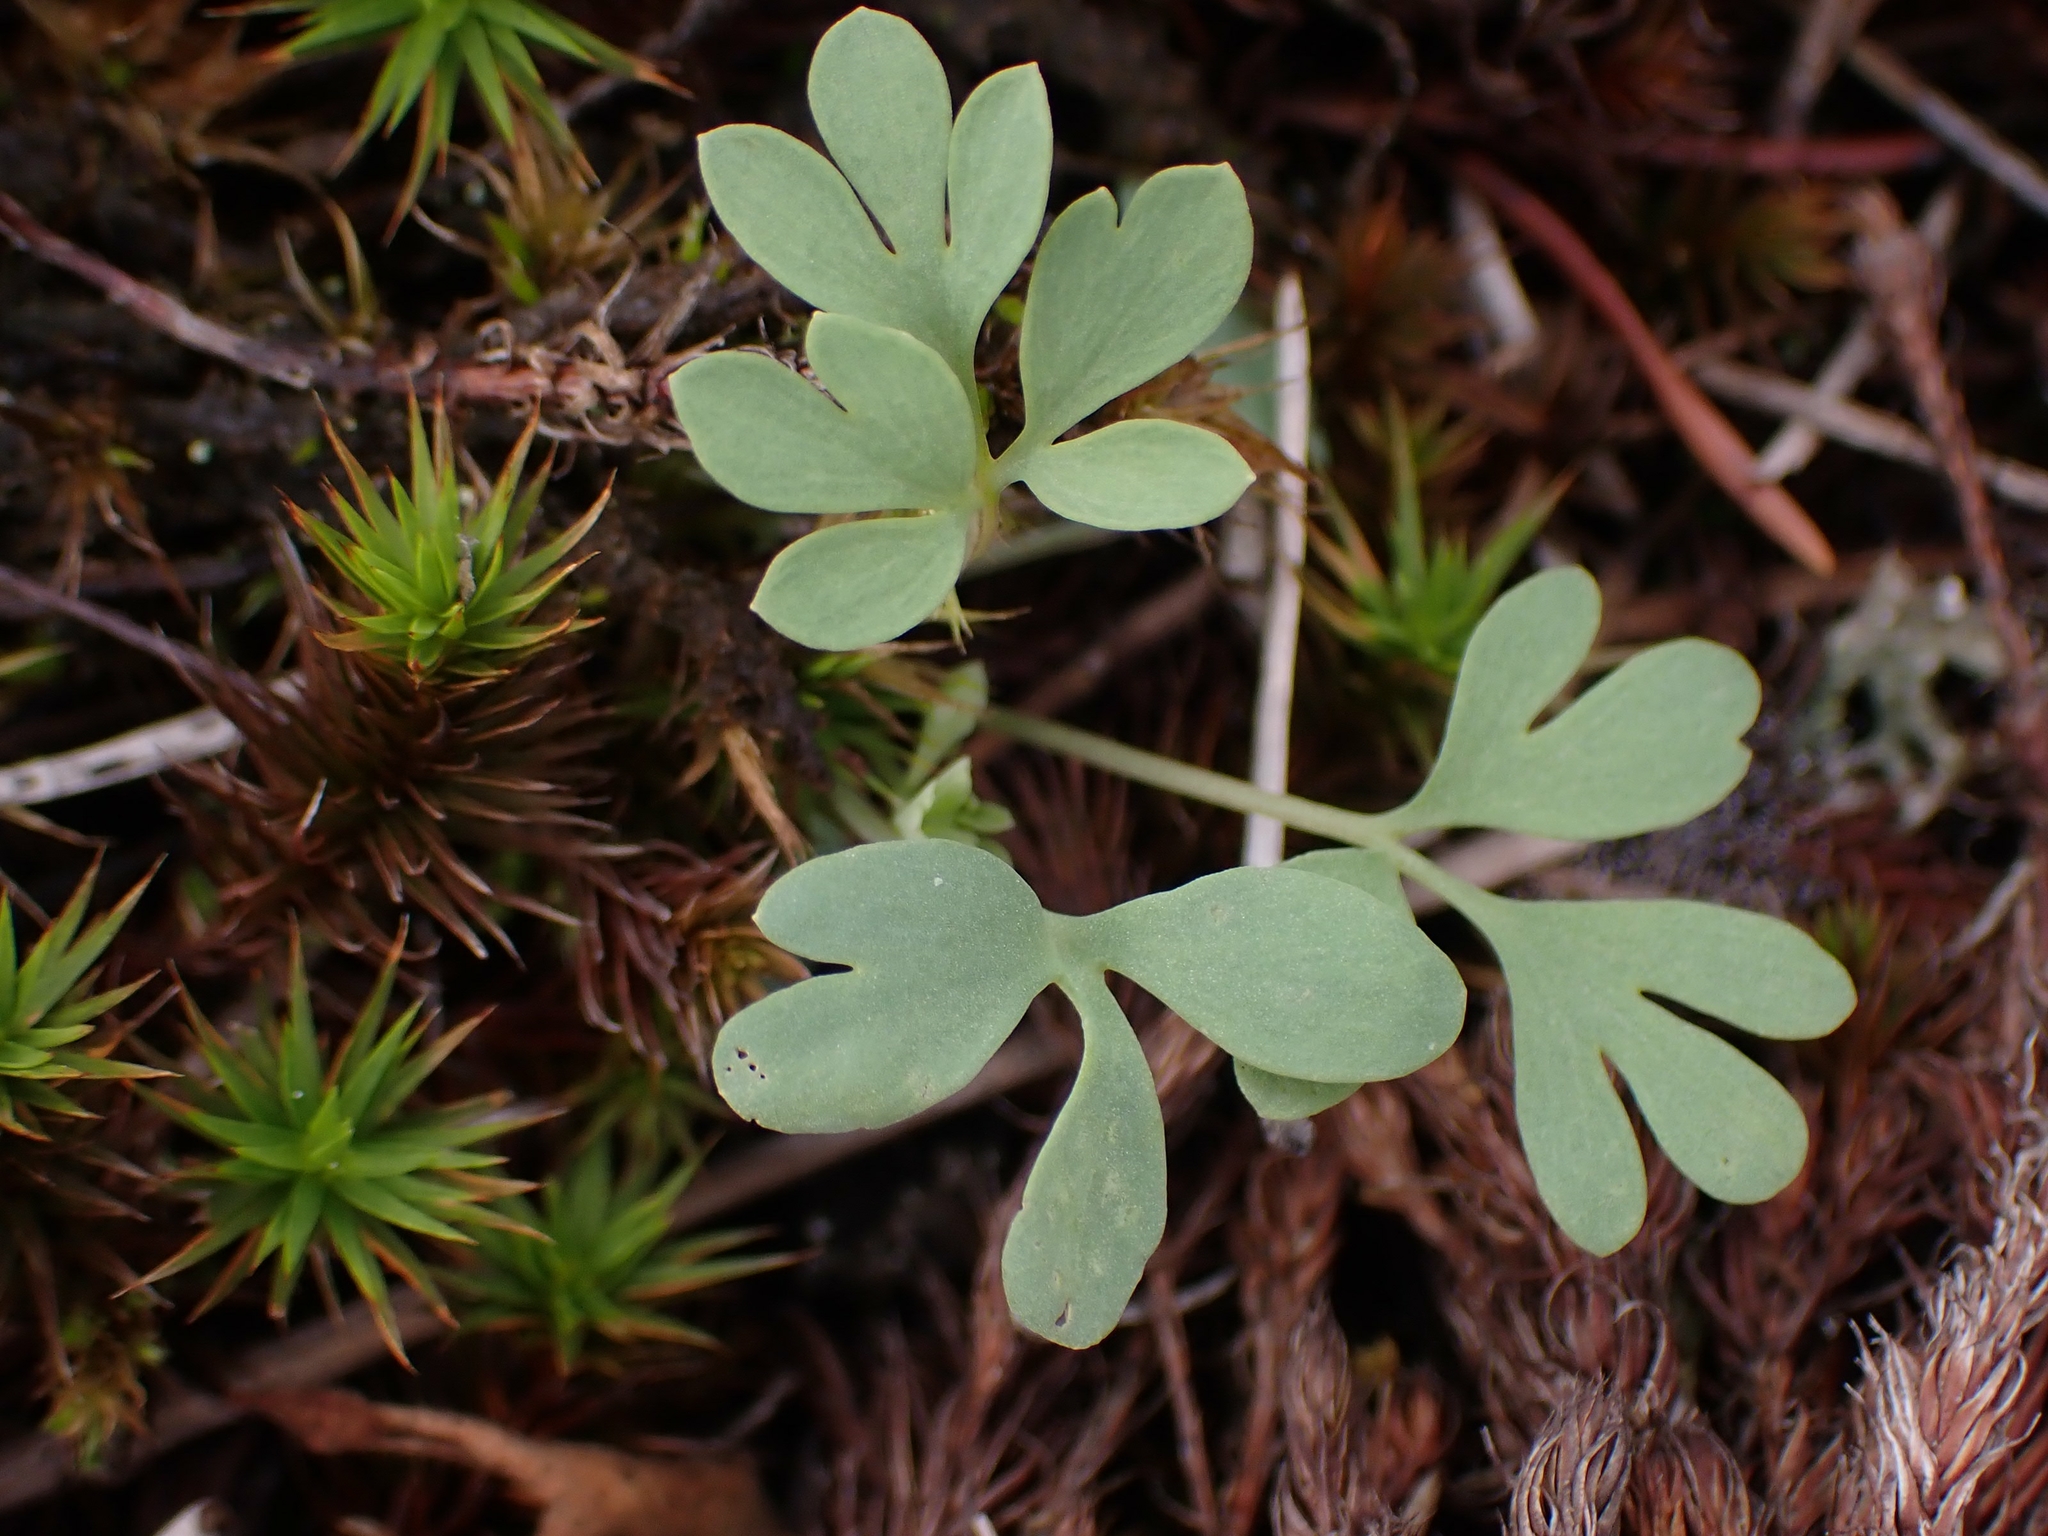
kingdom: Plantae
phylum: Tracheophyta
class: Magnoliopsida
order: Ranunculales
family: Papaveraceae
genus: Capnoides
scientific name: Capnoides sempervirens
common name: Rock harlequin
